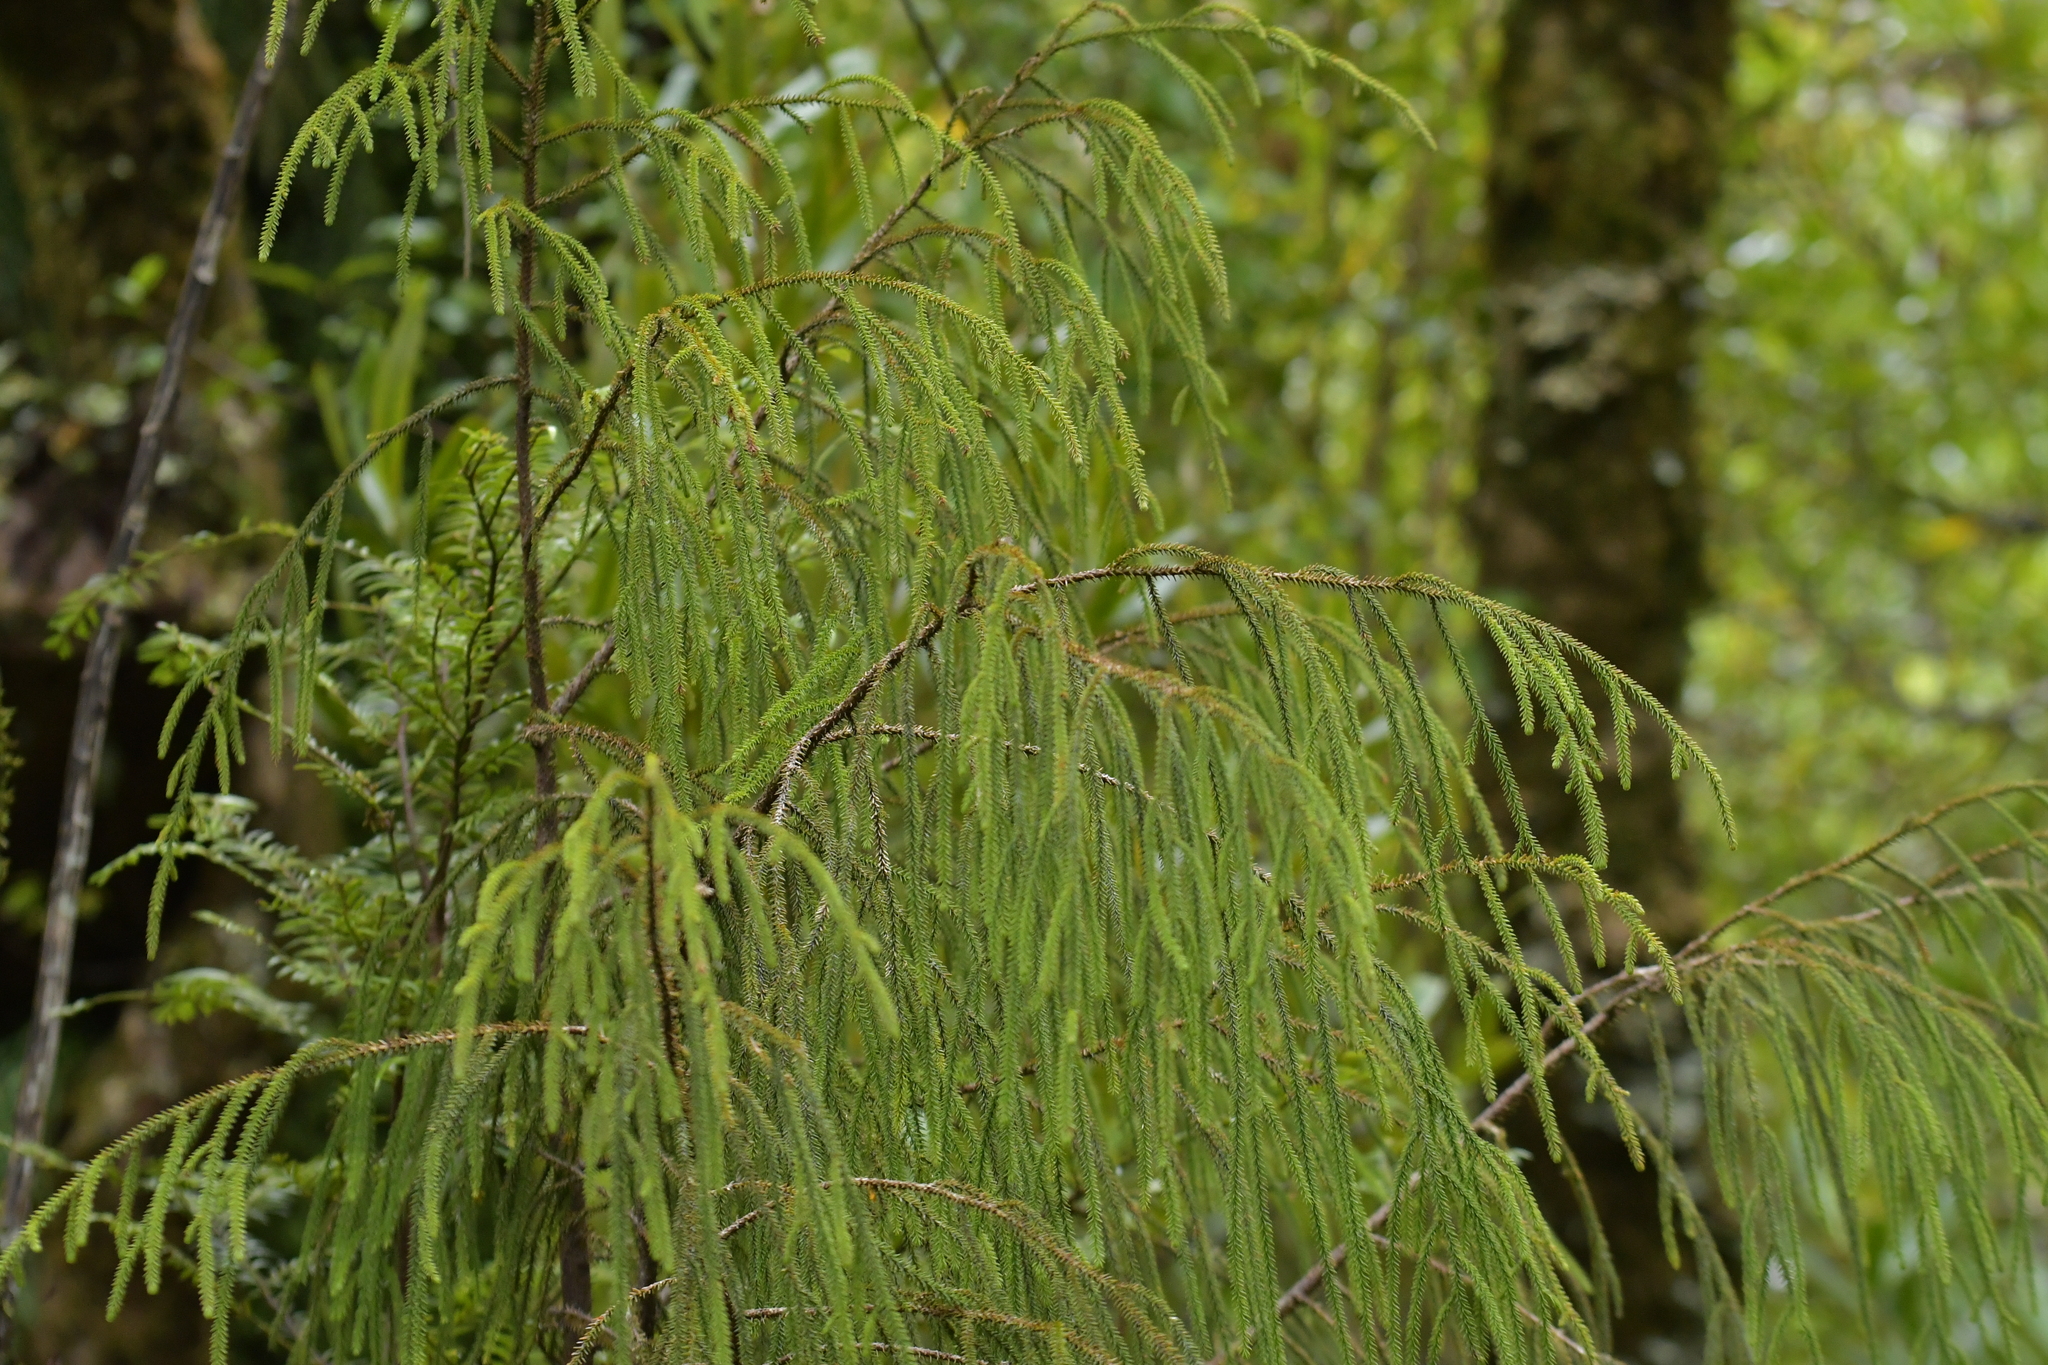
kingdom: Plantae
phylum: Tracheophyta
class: Pinopsida
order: Pinales
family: Podocarpaceae
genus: Dacrydium
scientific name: Dacrydium cupressinum
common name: Red pine
